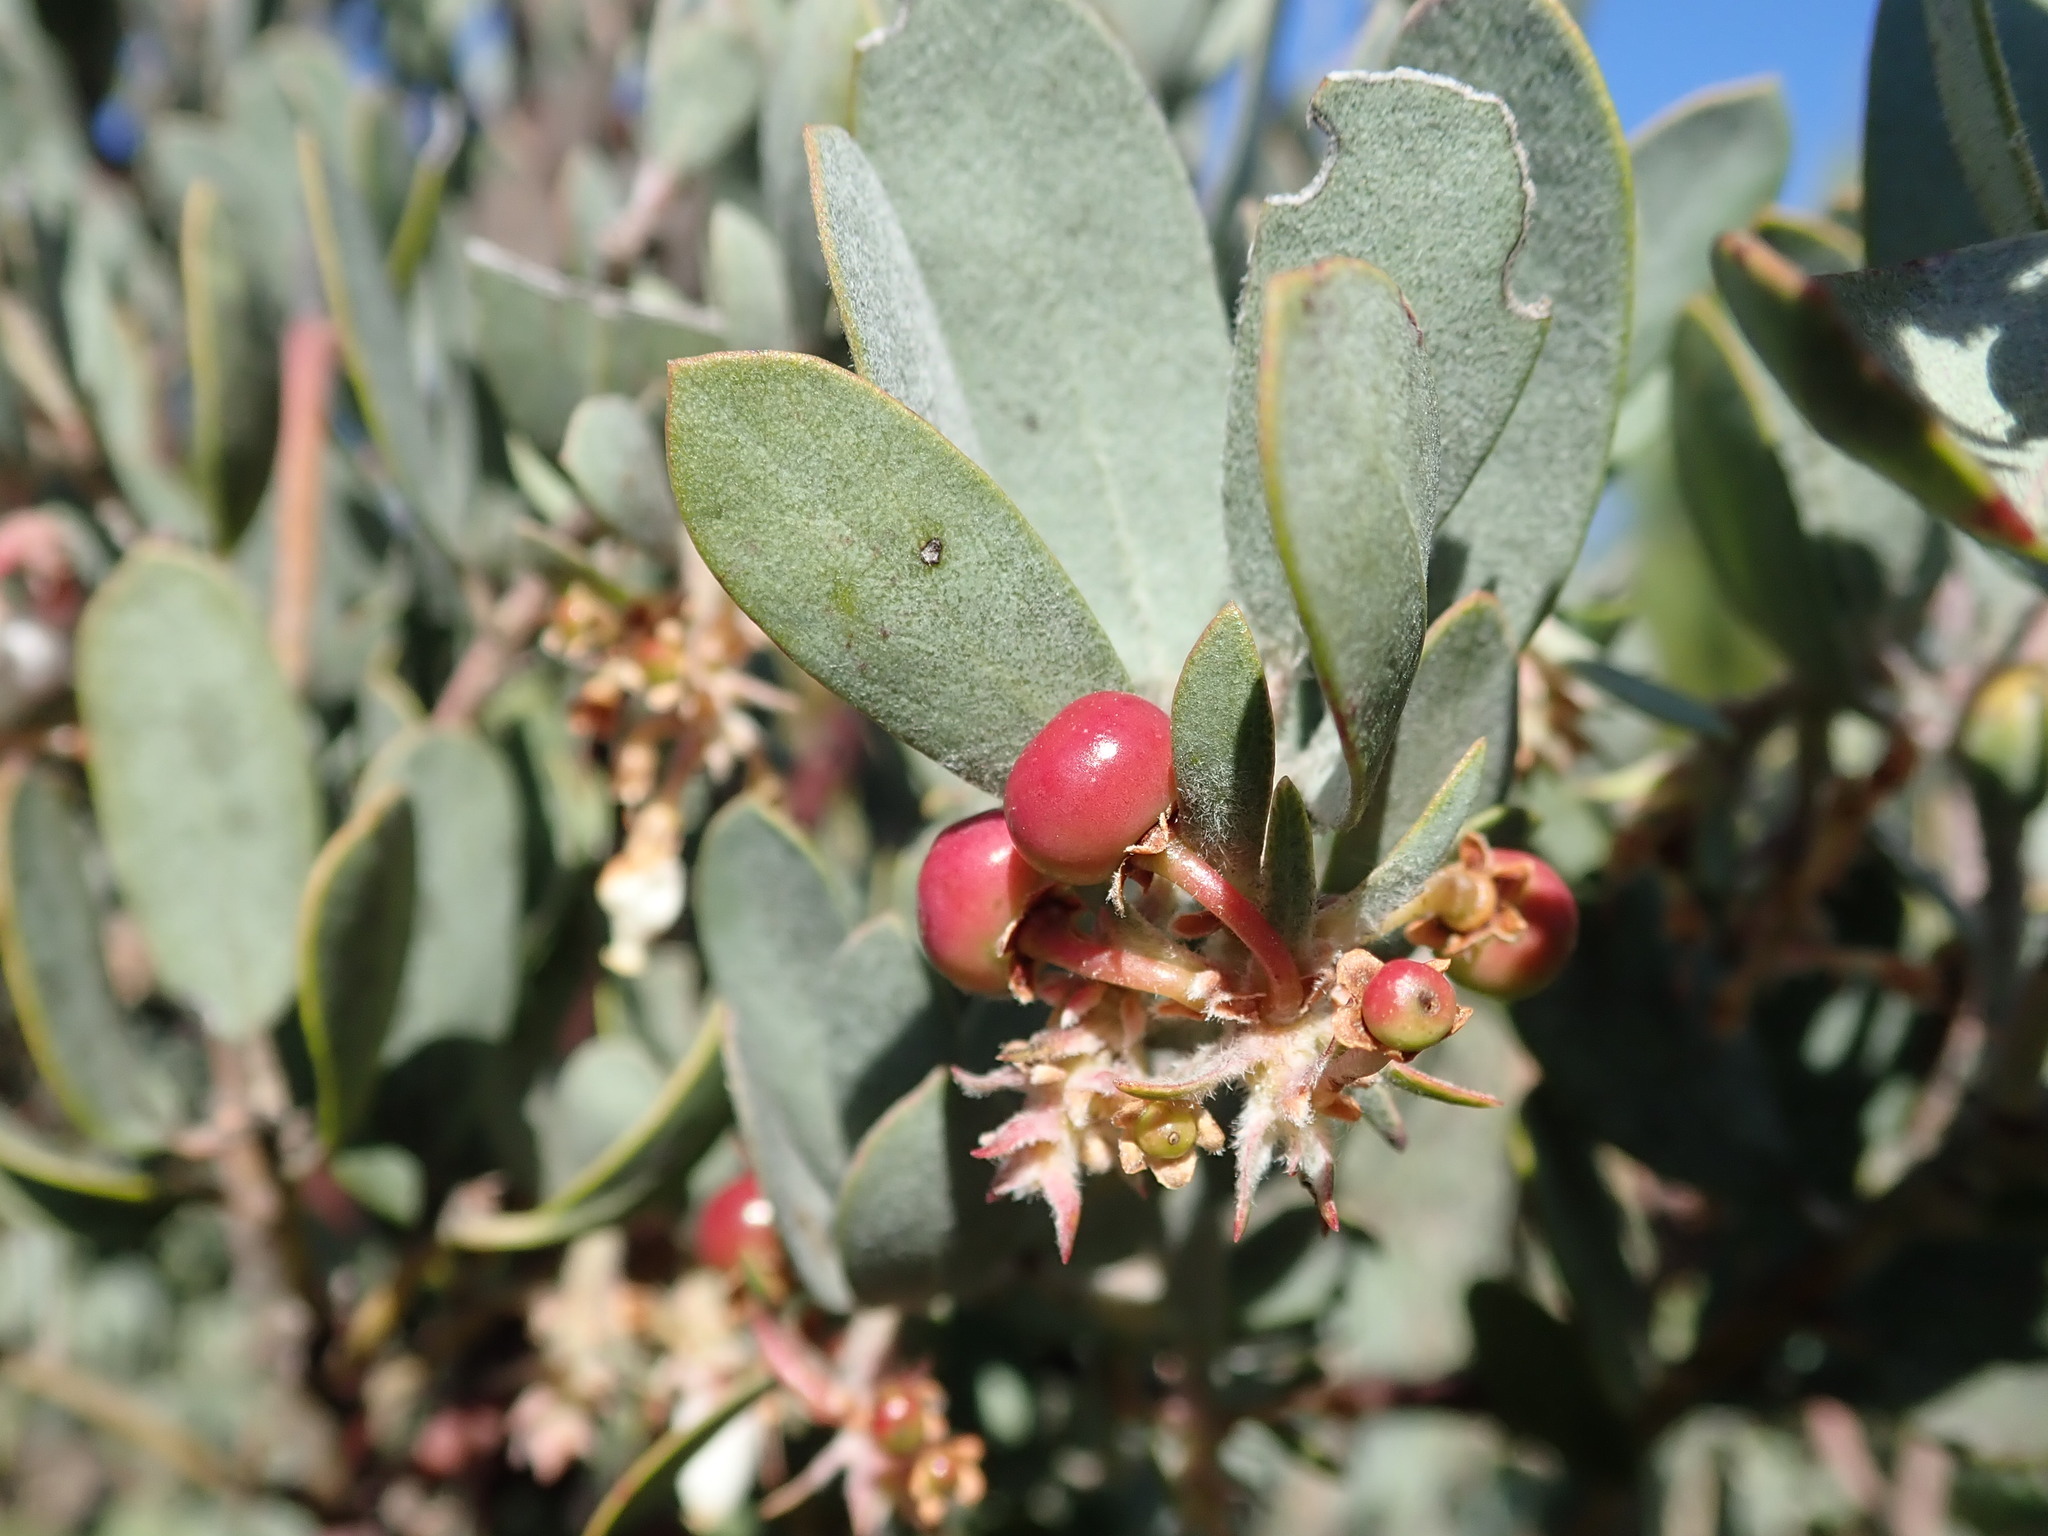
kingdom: Plantae
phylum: Tracheophyta
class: Magnoliopsida
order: Ericales
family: Ericaceae
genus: Arctostaphylos
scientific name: Arctostaphylos silvicola
